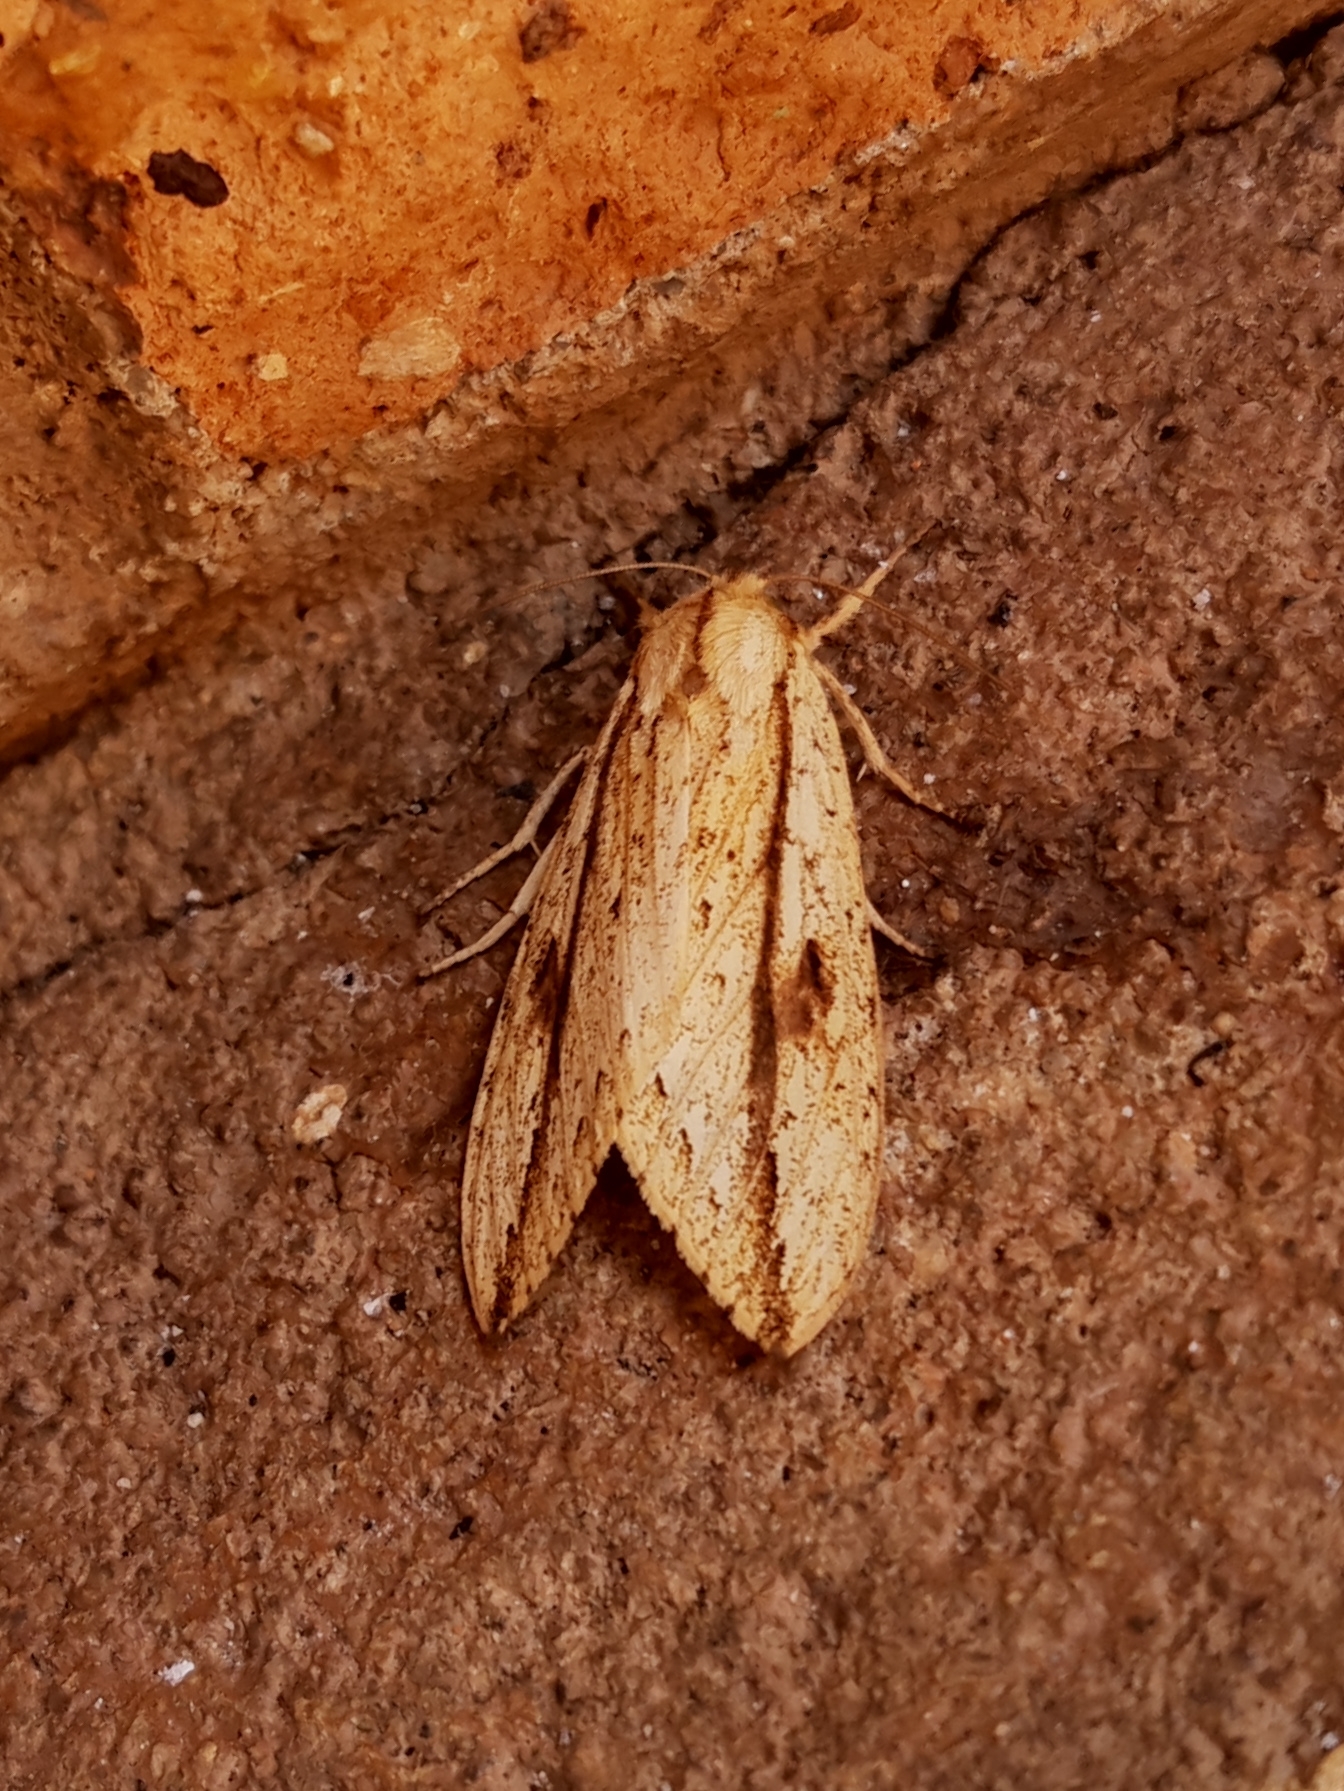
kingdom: Animalia
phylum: Arthropoda
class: Insecta
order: Lepidoptera
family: Erebidae
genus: Leucanopsis
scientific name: Leucanopsis oruba
